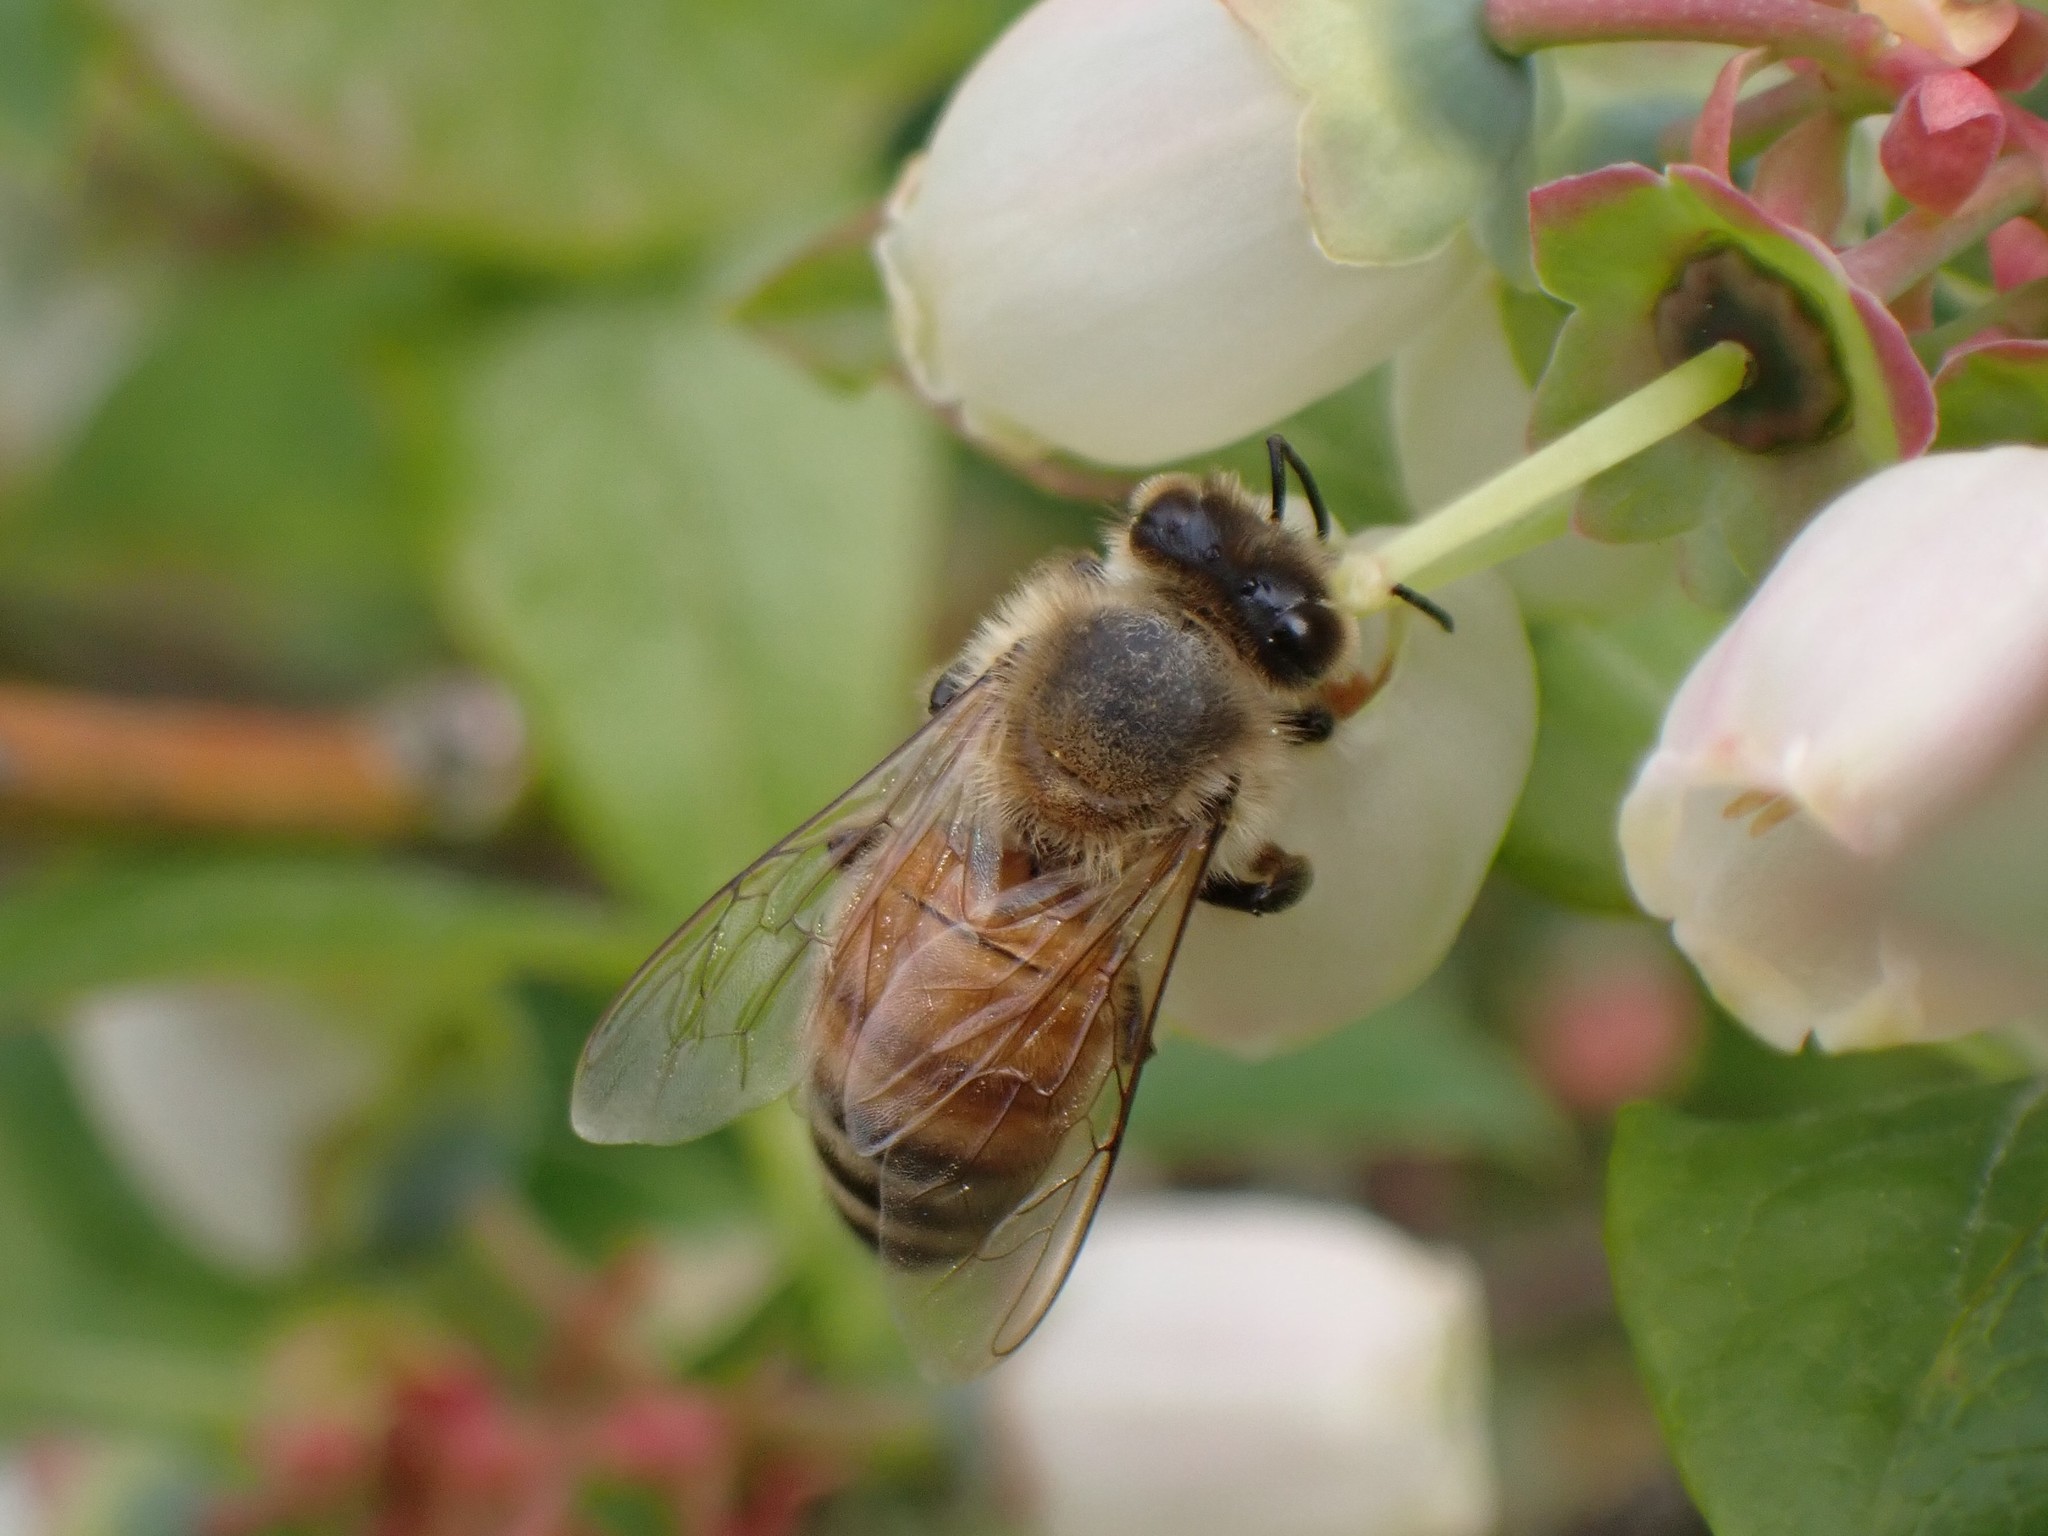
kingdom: Animalia
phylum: Arthropoda
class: Insecta
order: Hymenoptera
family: Apidae
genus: Apis
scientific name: Apis mellifera
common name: Honey bee
